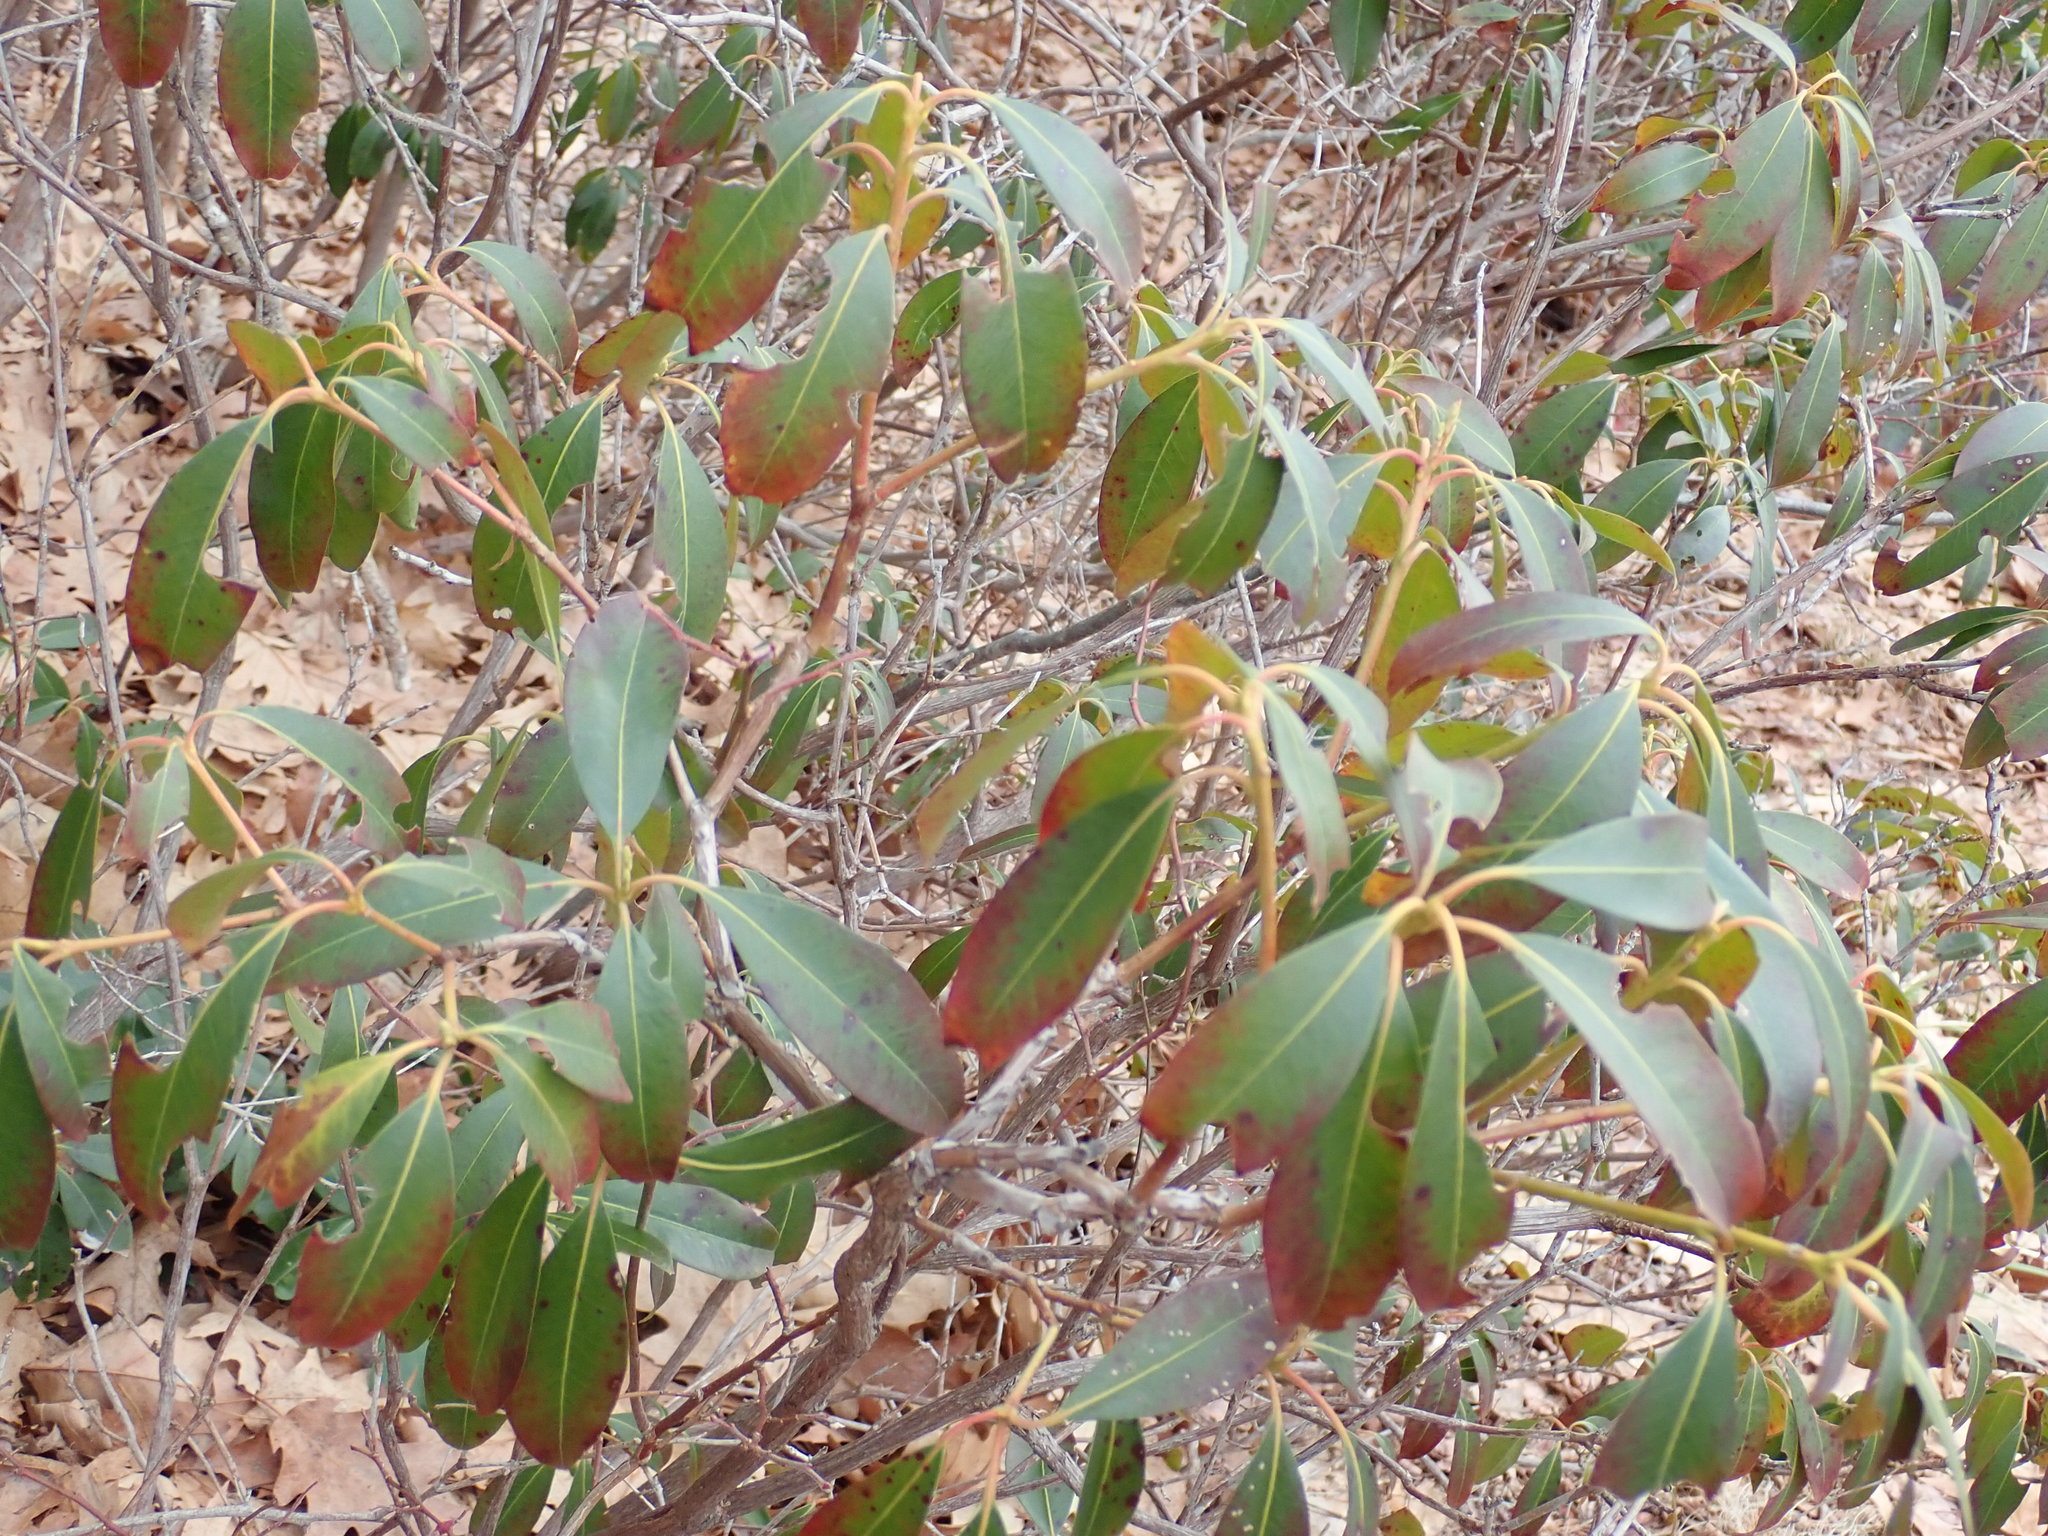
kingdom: Plantae
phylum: Tracheophyta
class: Magnoliopsida
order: Ericales
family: Ericaceae
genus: Kalmia
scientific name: Kalmia latifolia
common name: Mountain-laurel
